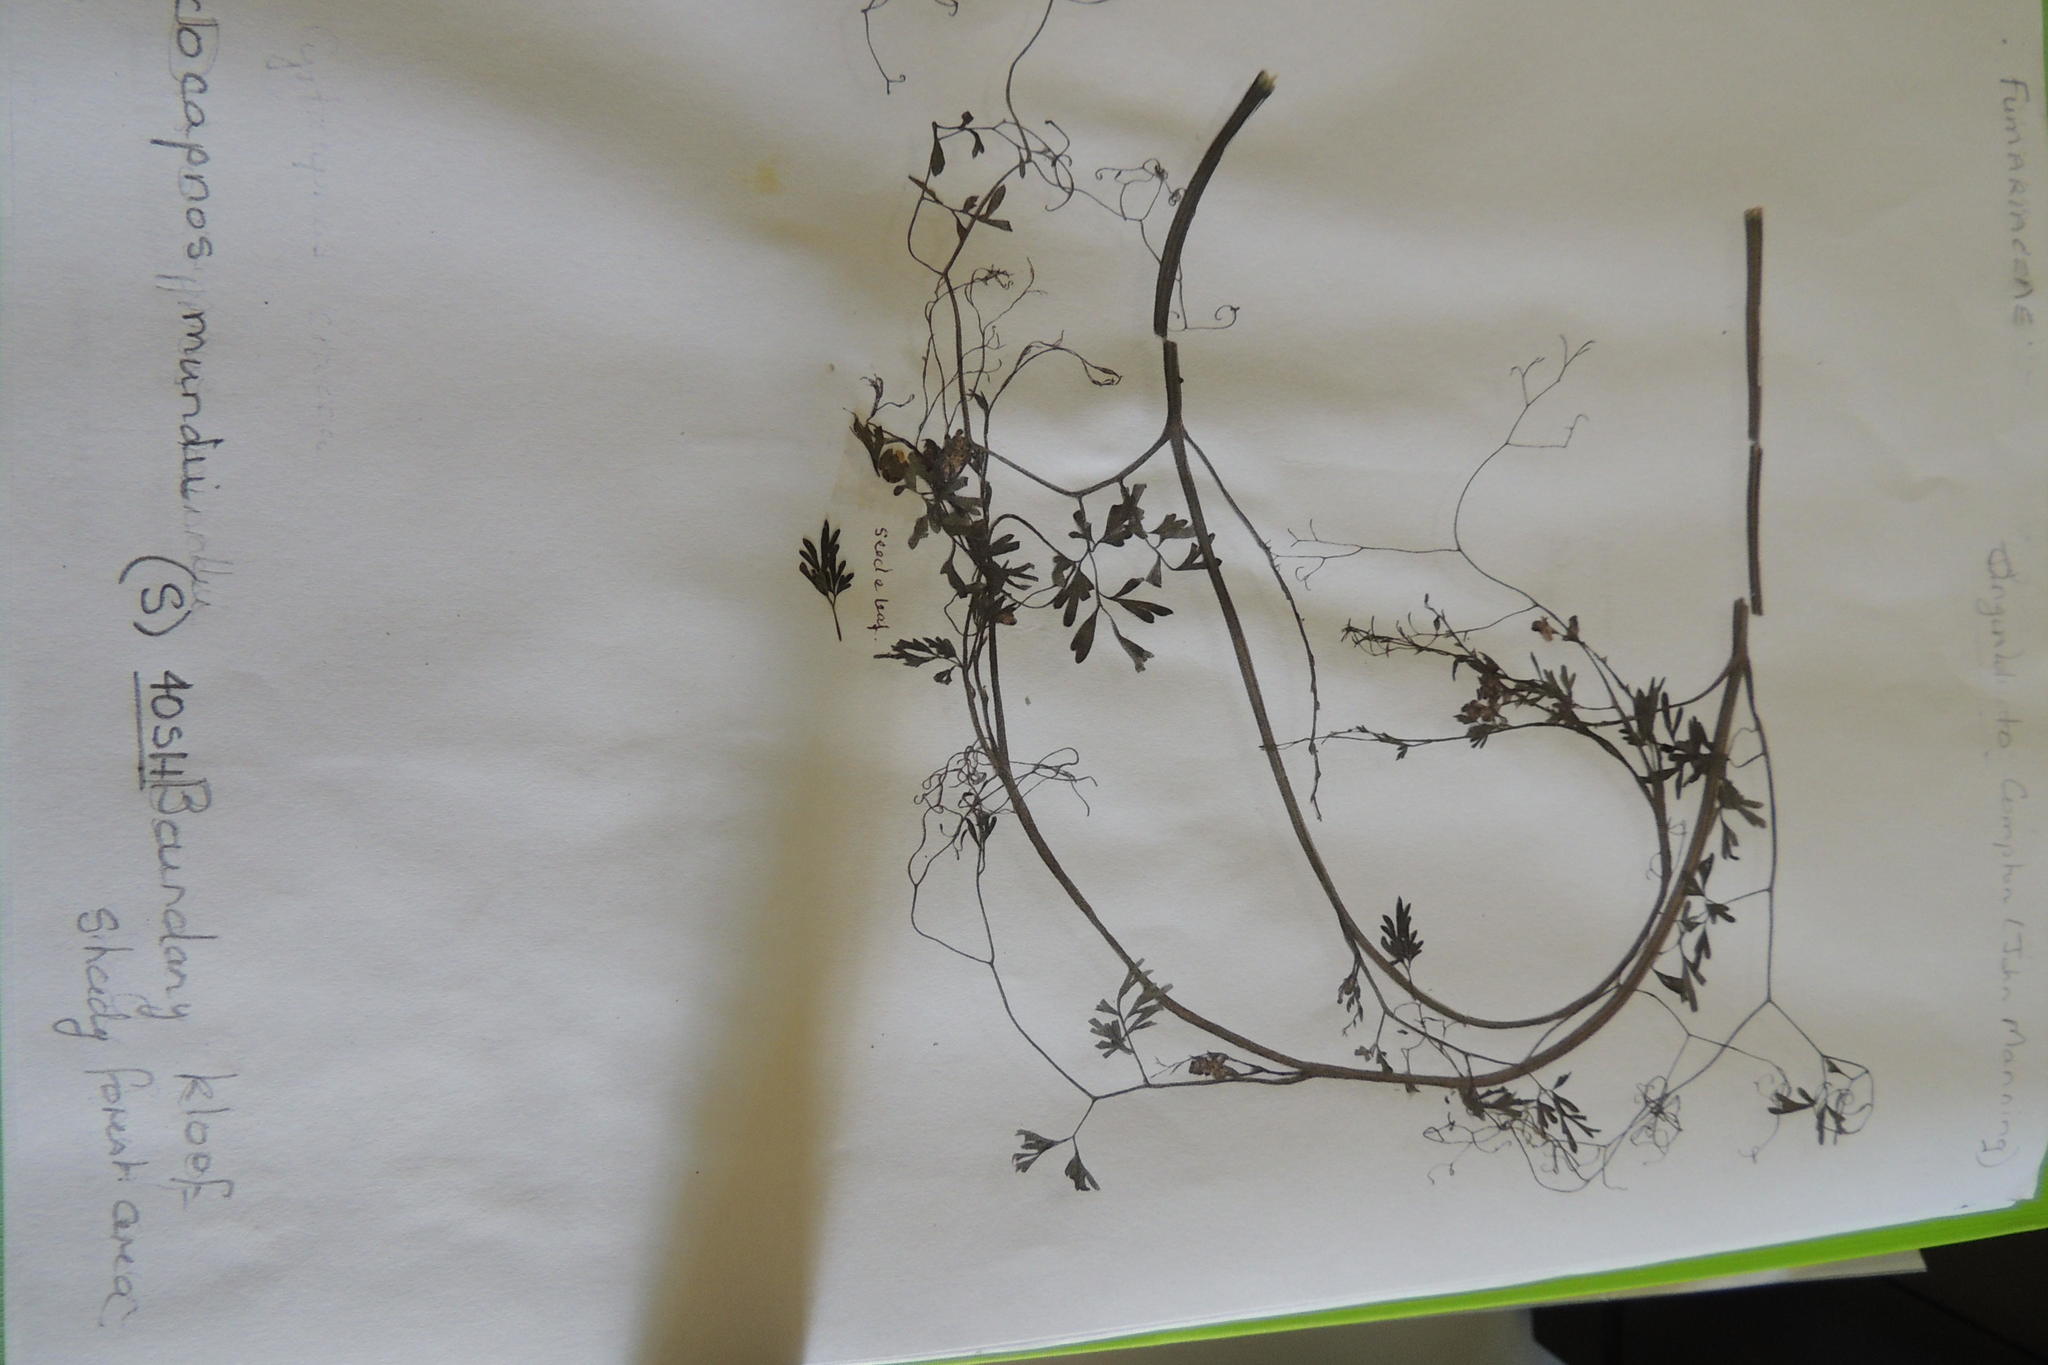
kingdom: Plantae
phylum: Tracheophyta
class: Magnoliopsida
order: Ranunculales
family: Papaveraceae
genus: Discocapnos
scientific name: Discocapnos mundti
